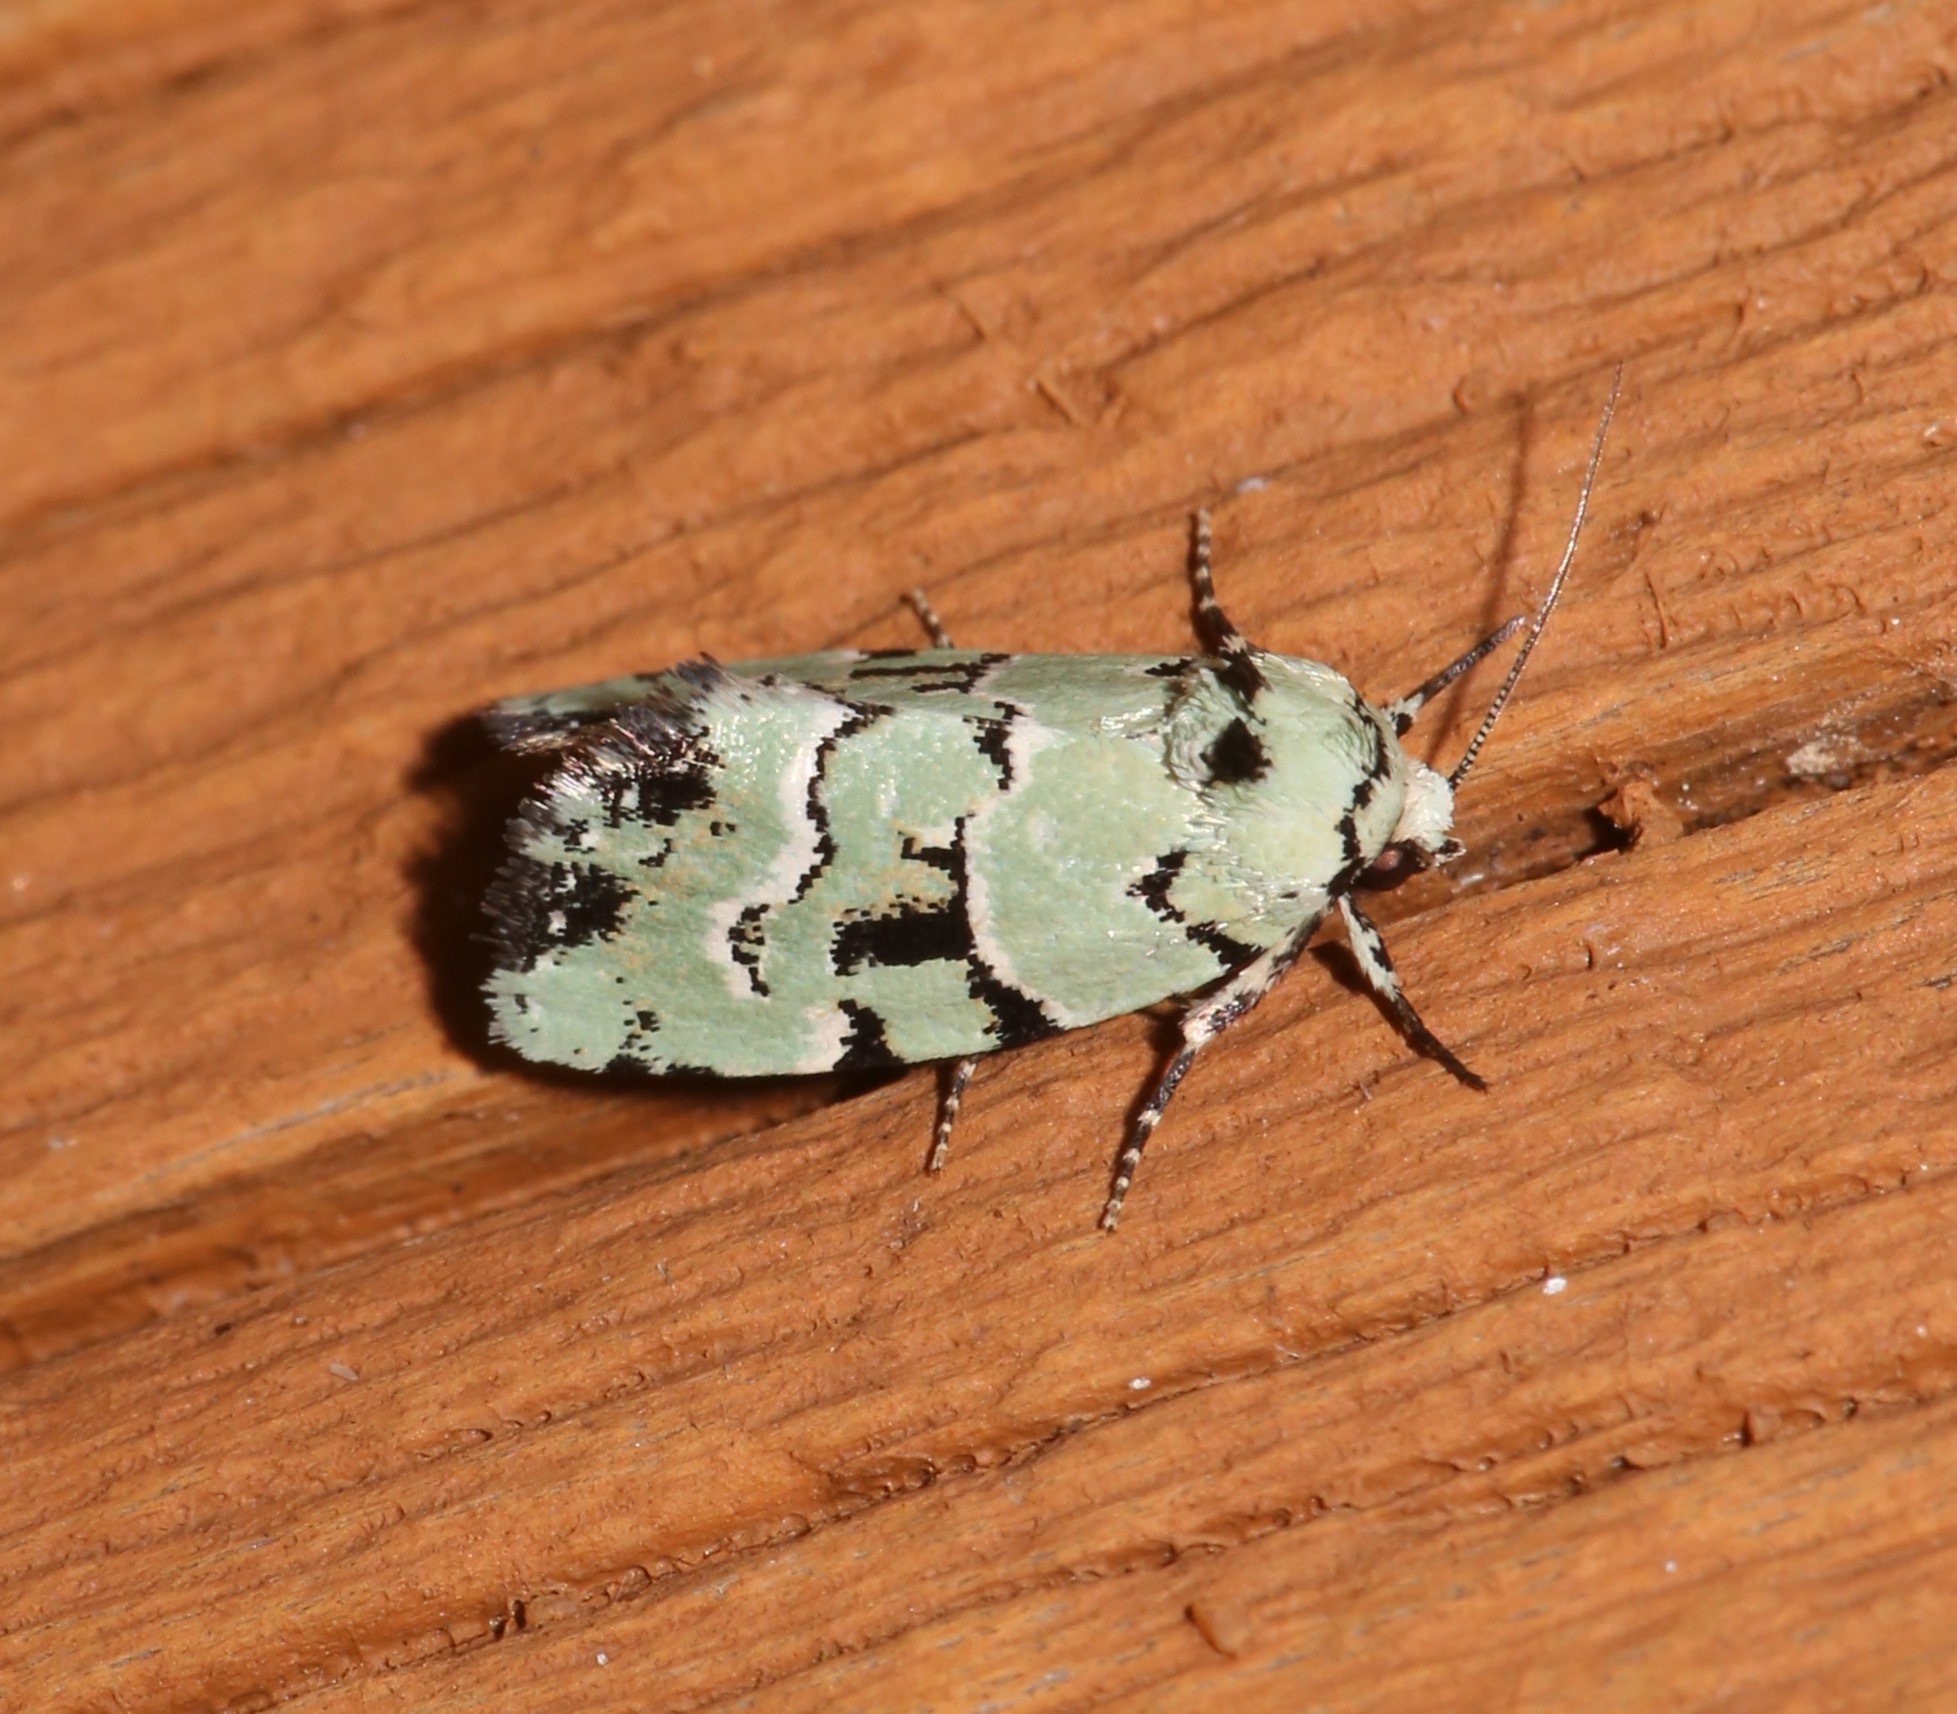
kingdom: Animalia
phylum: Arthropoda
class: Insecta
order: Lepidoptera
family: Noctuidae
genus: Elaphria
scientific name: Elaphria cyanympha
